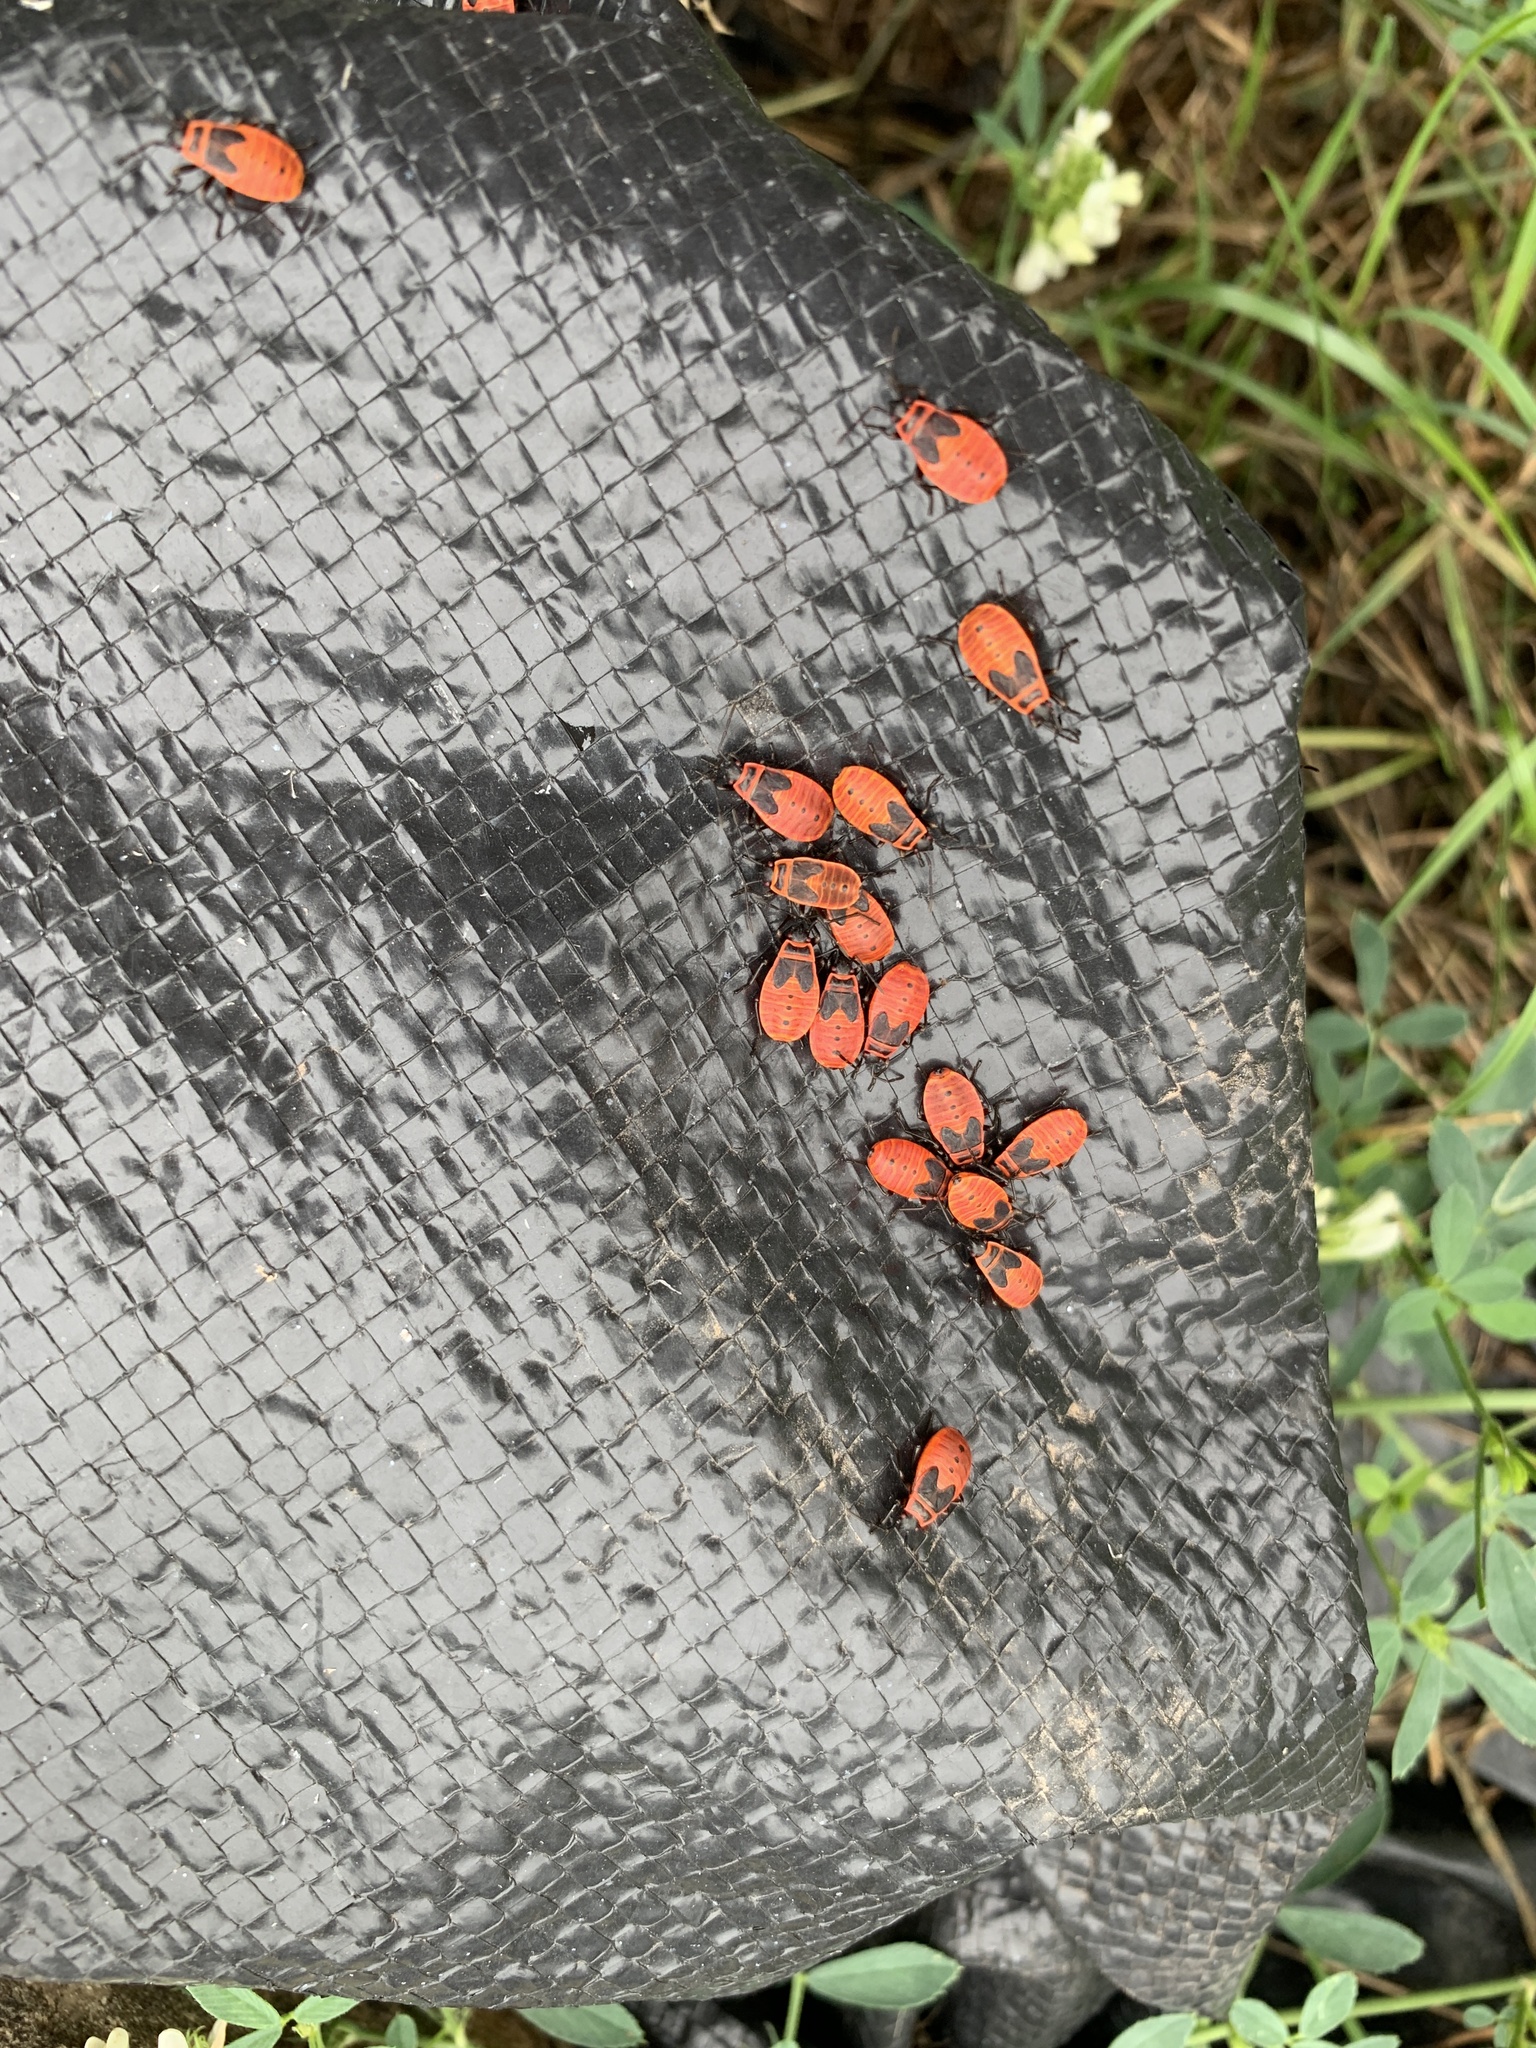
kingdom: Animalia
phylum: Arthropoda
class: Insecta
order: Hemiptera
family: Pyrrhocoridae
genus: Pyrrhocoris
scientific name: Pyrrhocoris apterus
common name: Firebug
